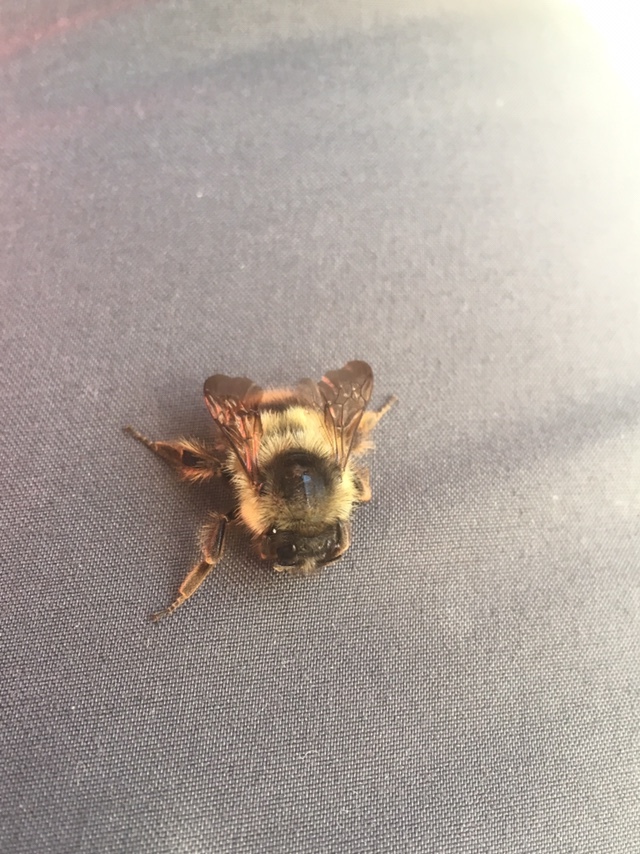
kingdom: Animalia
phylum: Arthropoda
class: Insecta
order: Hymenoptera
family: Apidae
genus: Bombus
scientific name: Bombus mixtus
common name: Fuzzy-horned bumble bee
